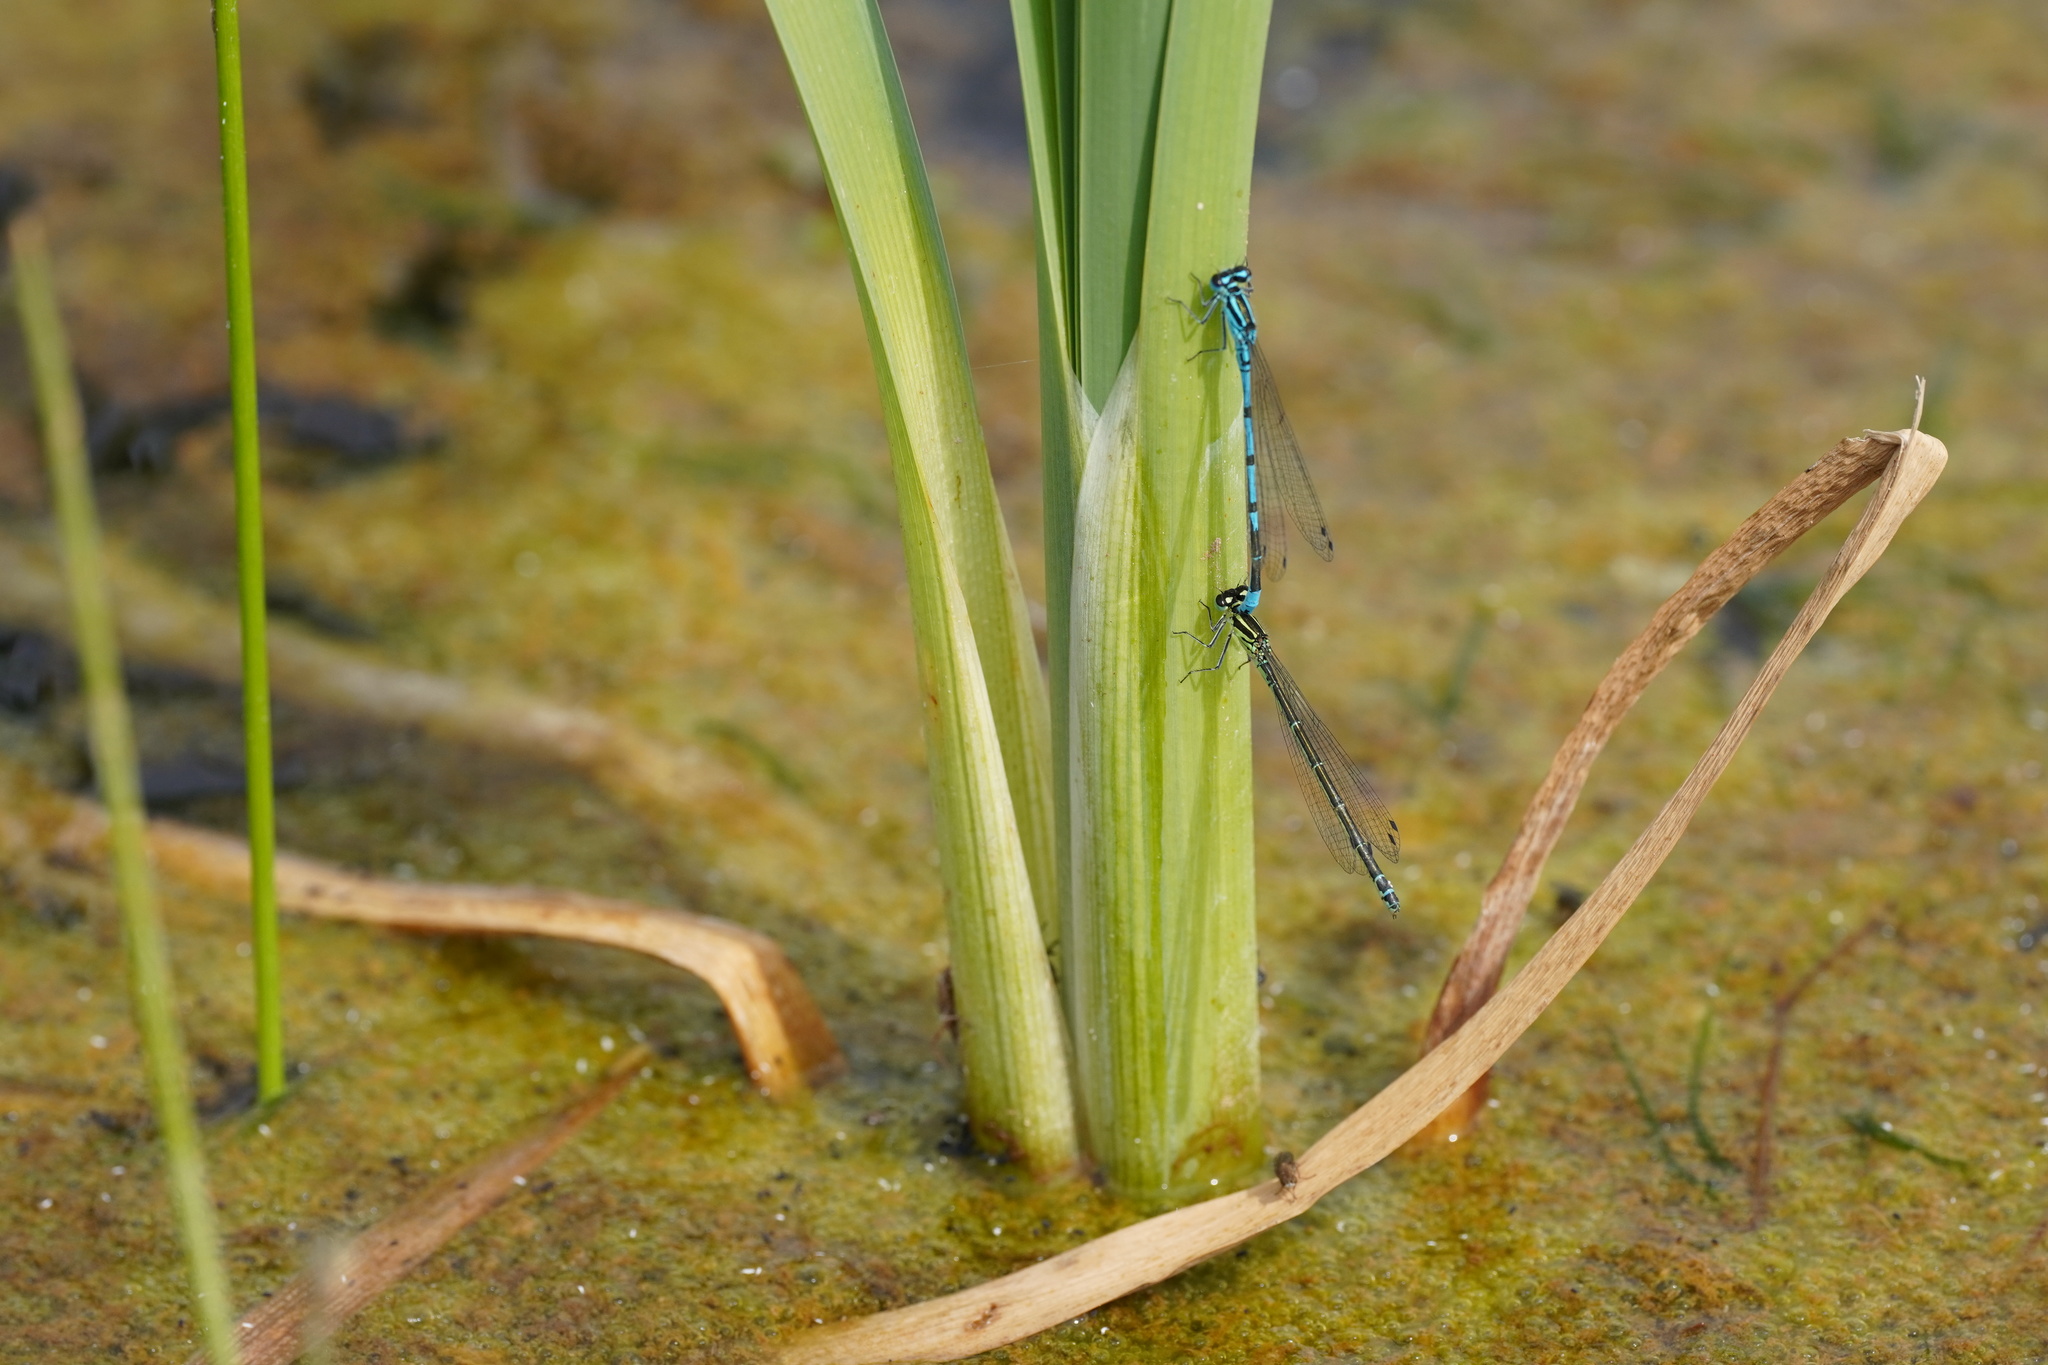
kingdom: Animalia
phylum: Arthropoda
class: Insecta
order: Odonata
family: Coenagrionidae
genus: Coenagrion
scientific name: Coenagrion puella
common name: Azure damselfly
